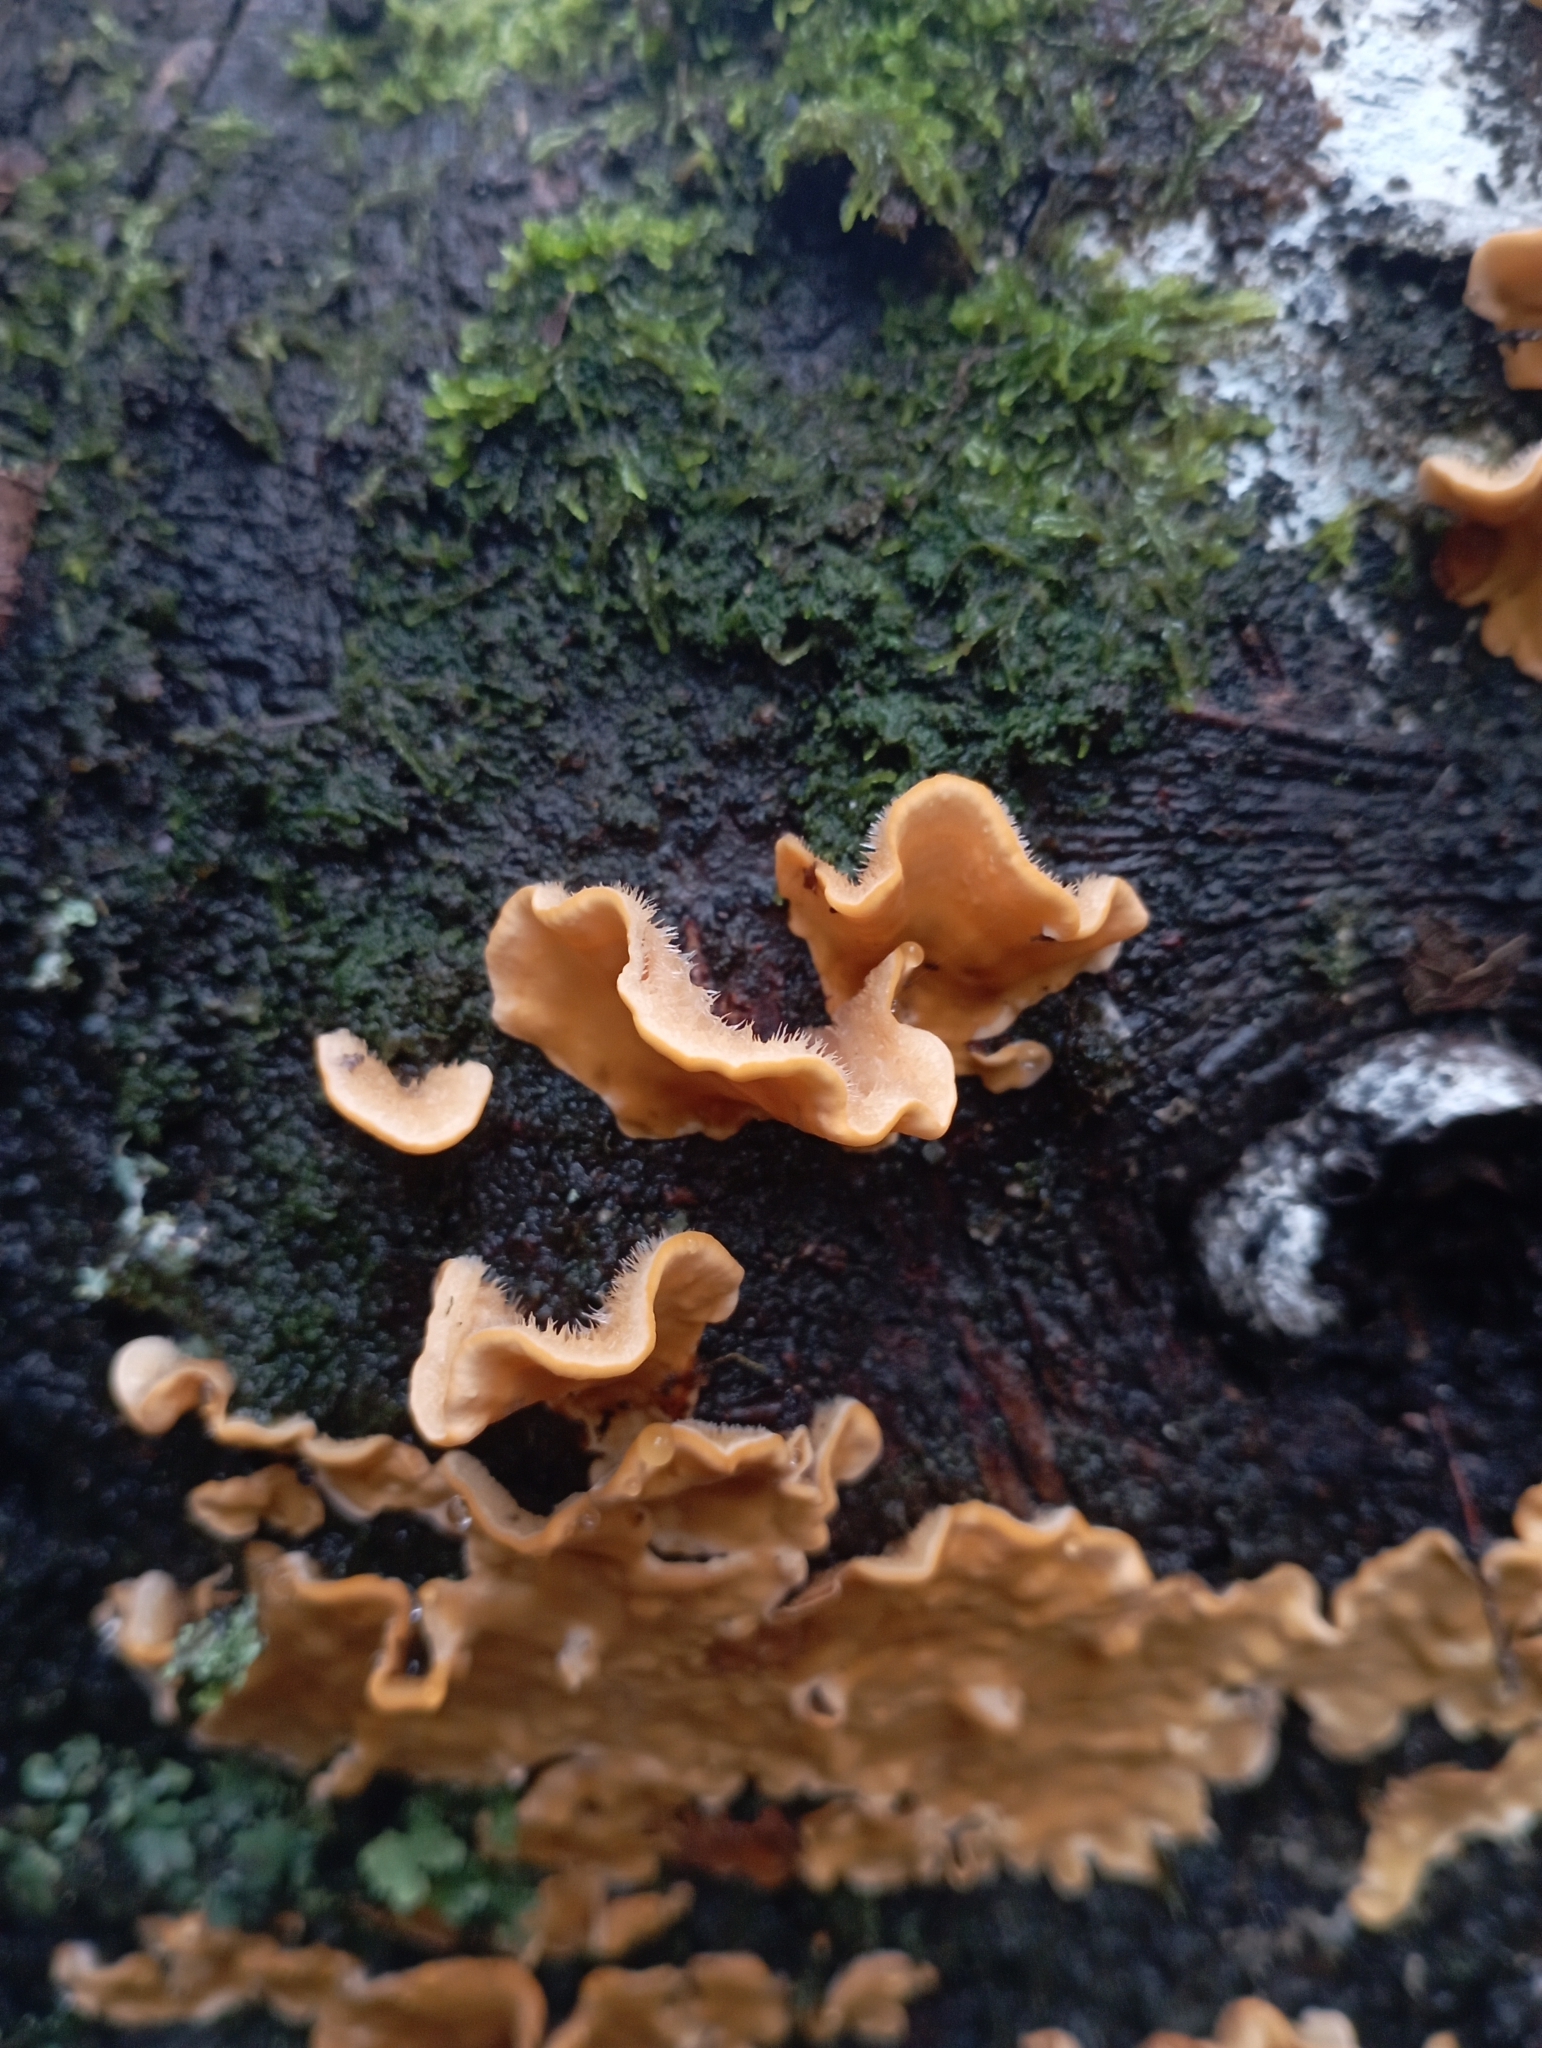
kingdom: Fungi
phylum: Basidiomycota
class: Agaricomycetes
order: Russulales
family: Stereaceae
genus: Stereum
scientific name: Stereum hirsutum
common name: Hairy curtain crust
